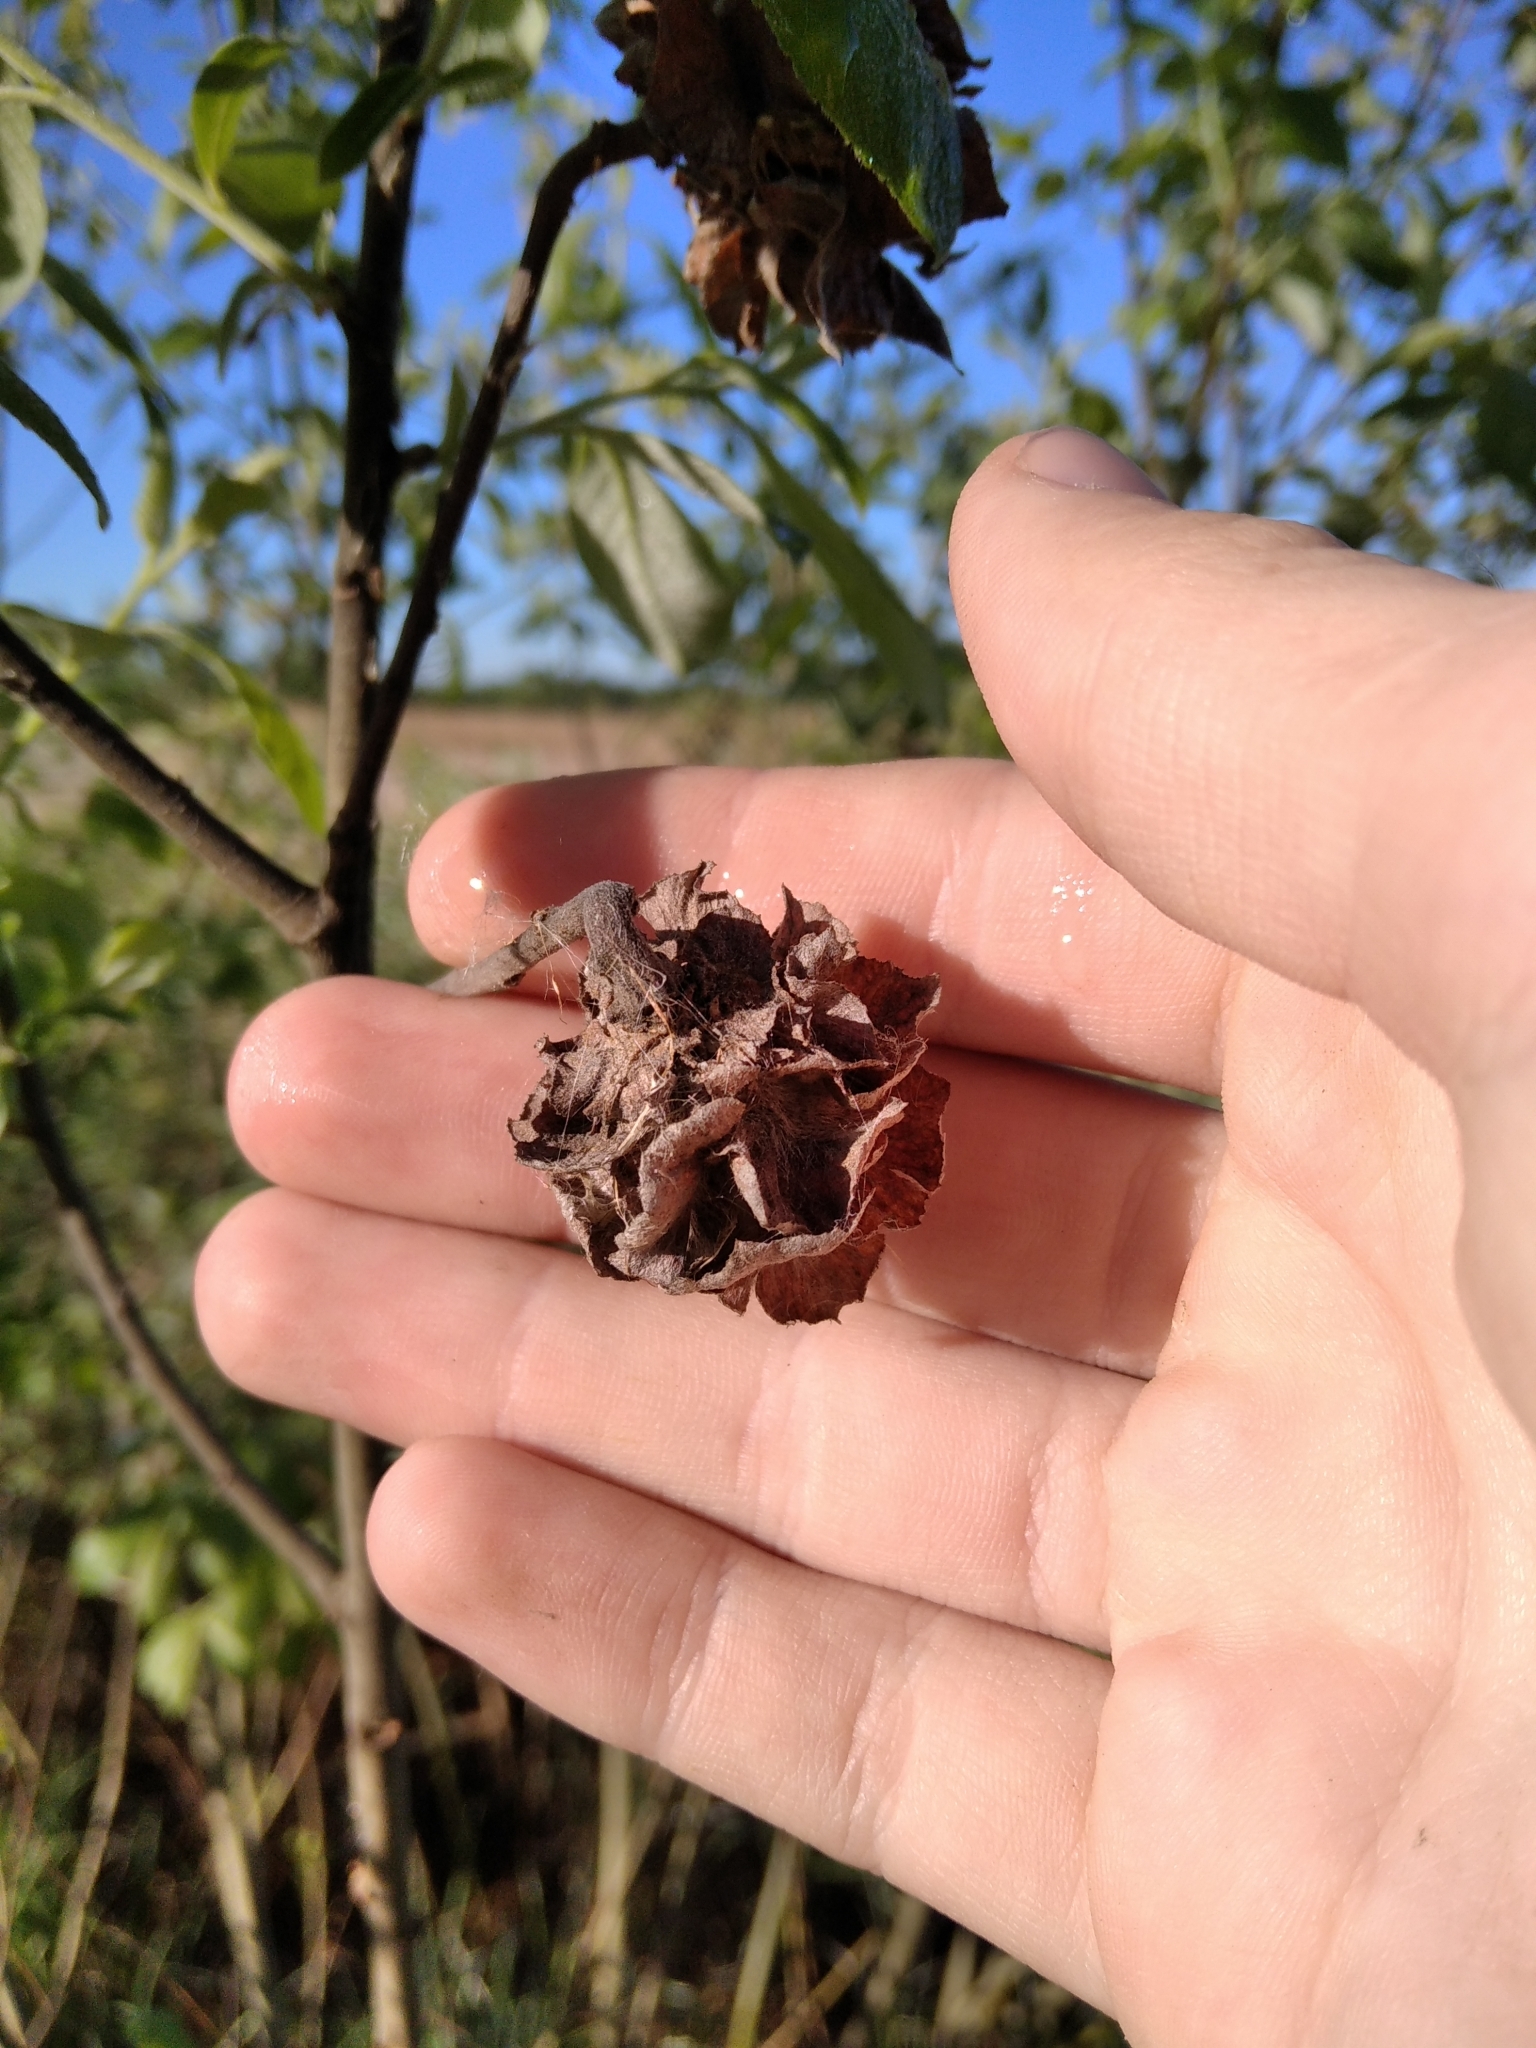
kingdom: Animalia
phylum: Arthropoda
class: Insecta
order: Diptera
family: Cecidomyiidae
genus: Rabdophaga
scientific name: Rabdophaga rosaria
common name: Willow rose gall midge
